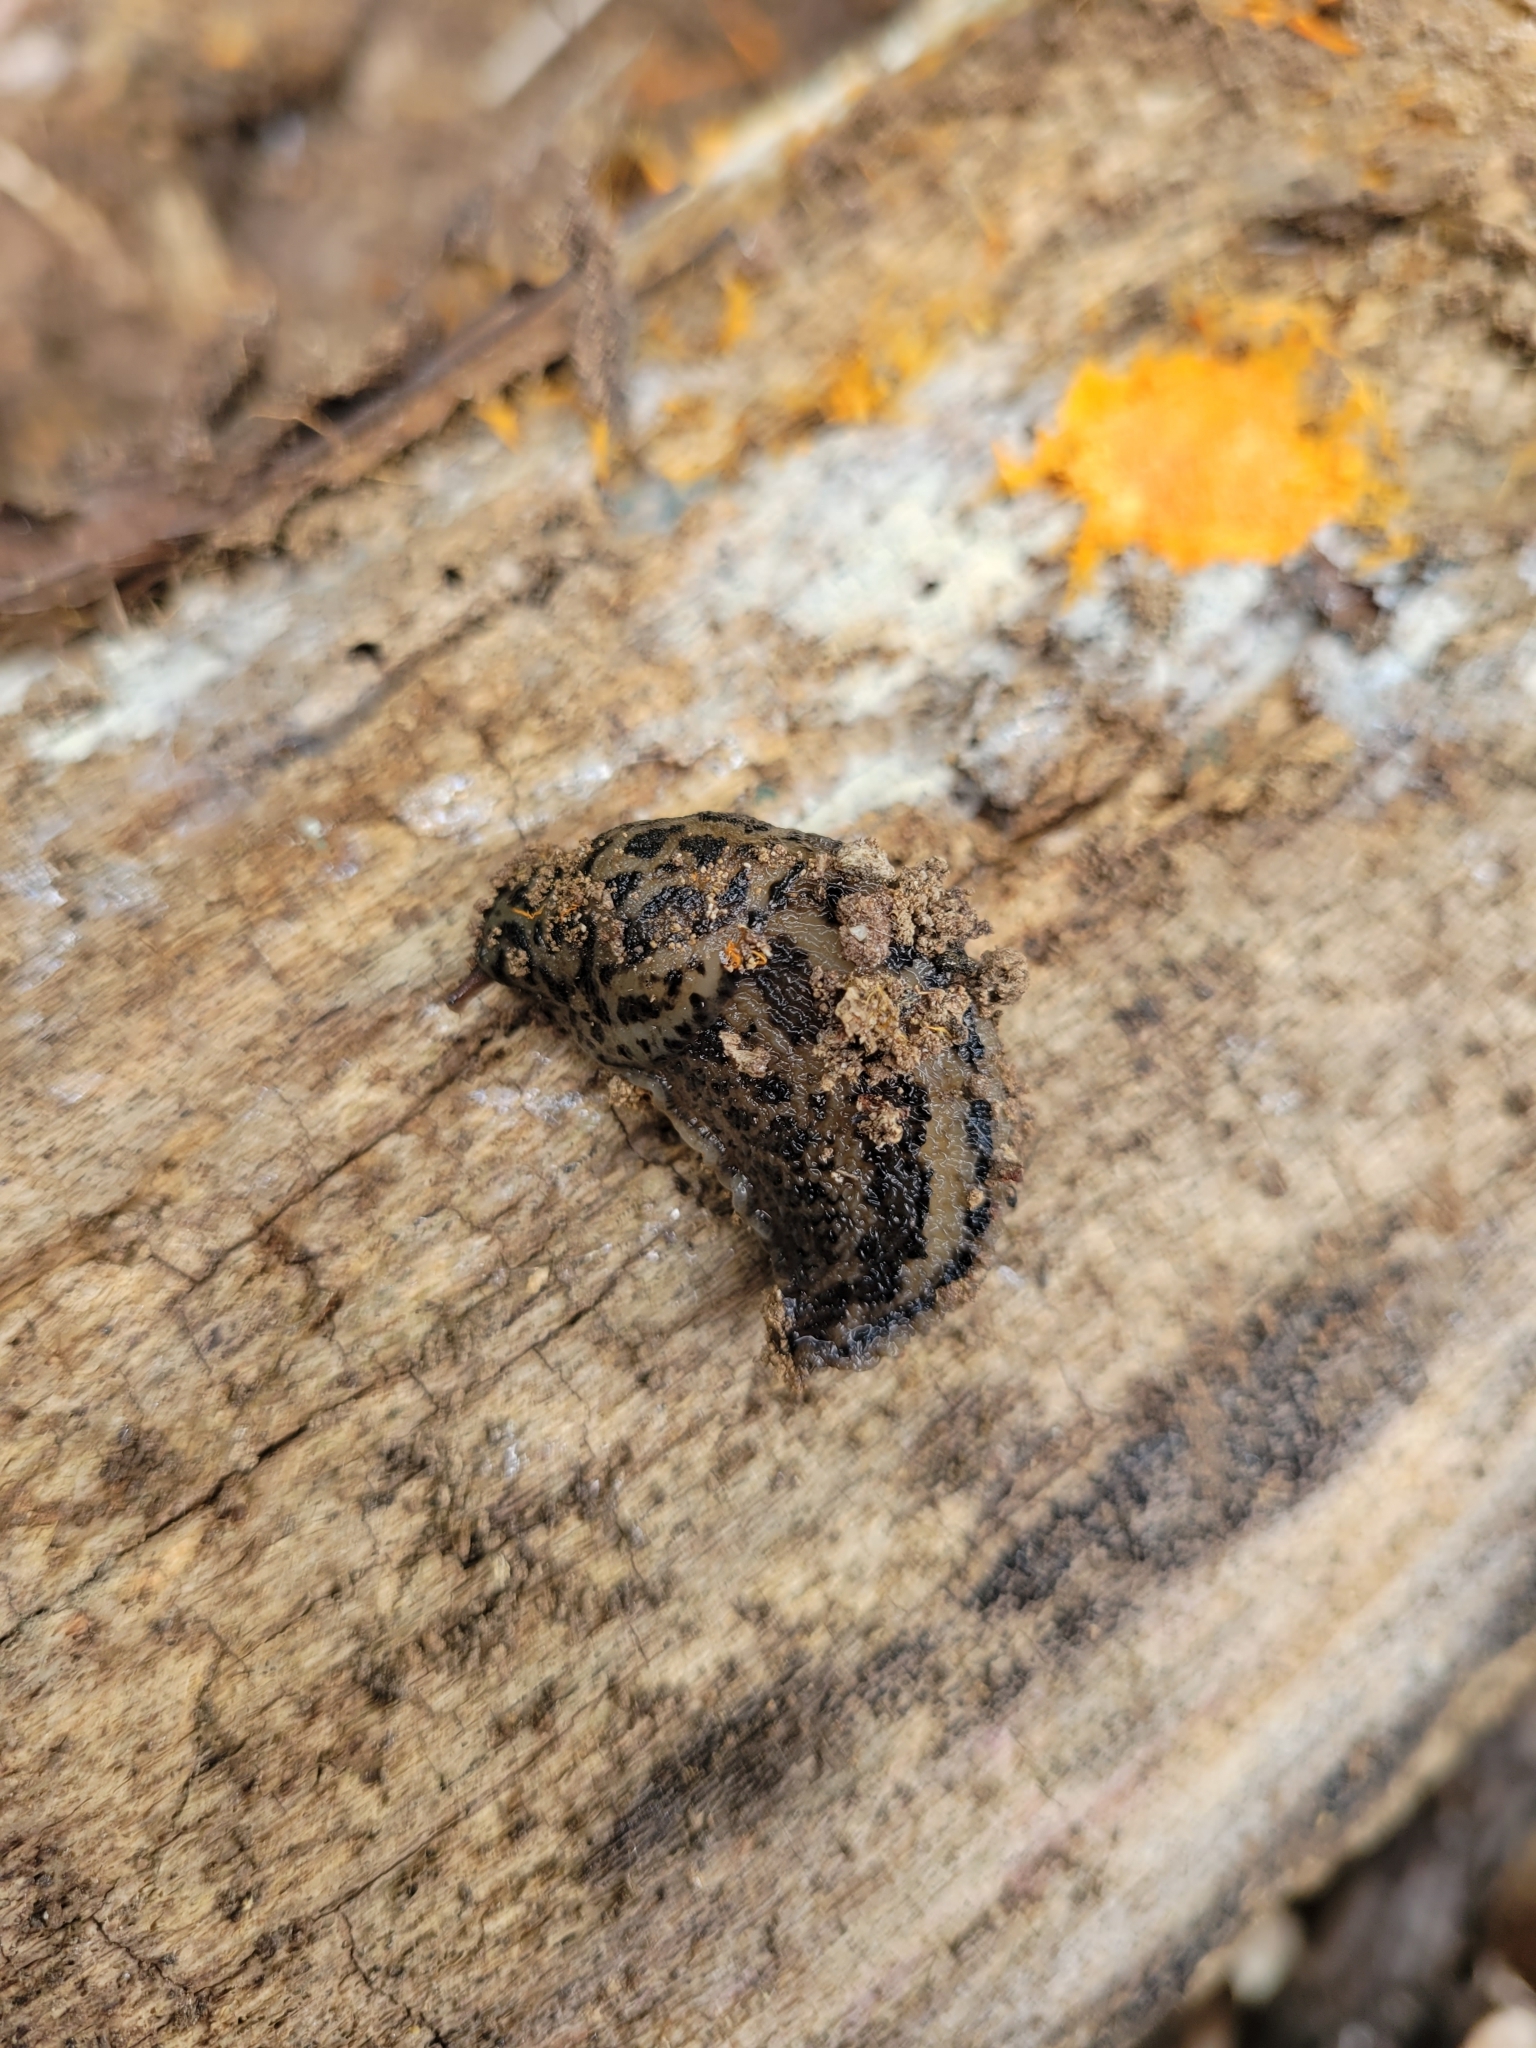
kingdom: Animalia
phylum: Mollusca
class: Gastropoda
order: Stylommatophora
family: Limacidae
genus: Limax
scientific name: Limax maximus
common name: Great grey slug
